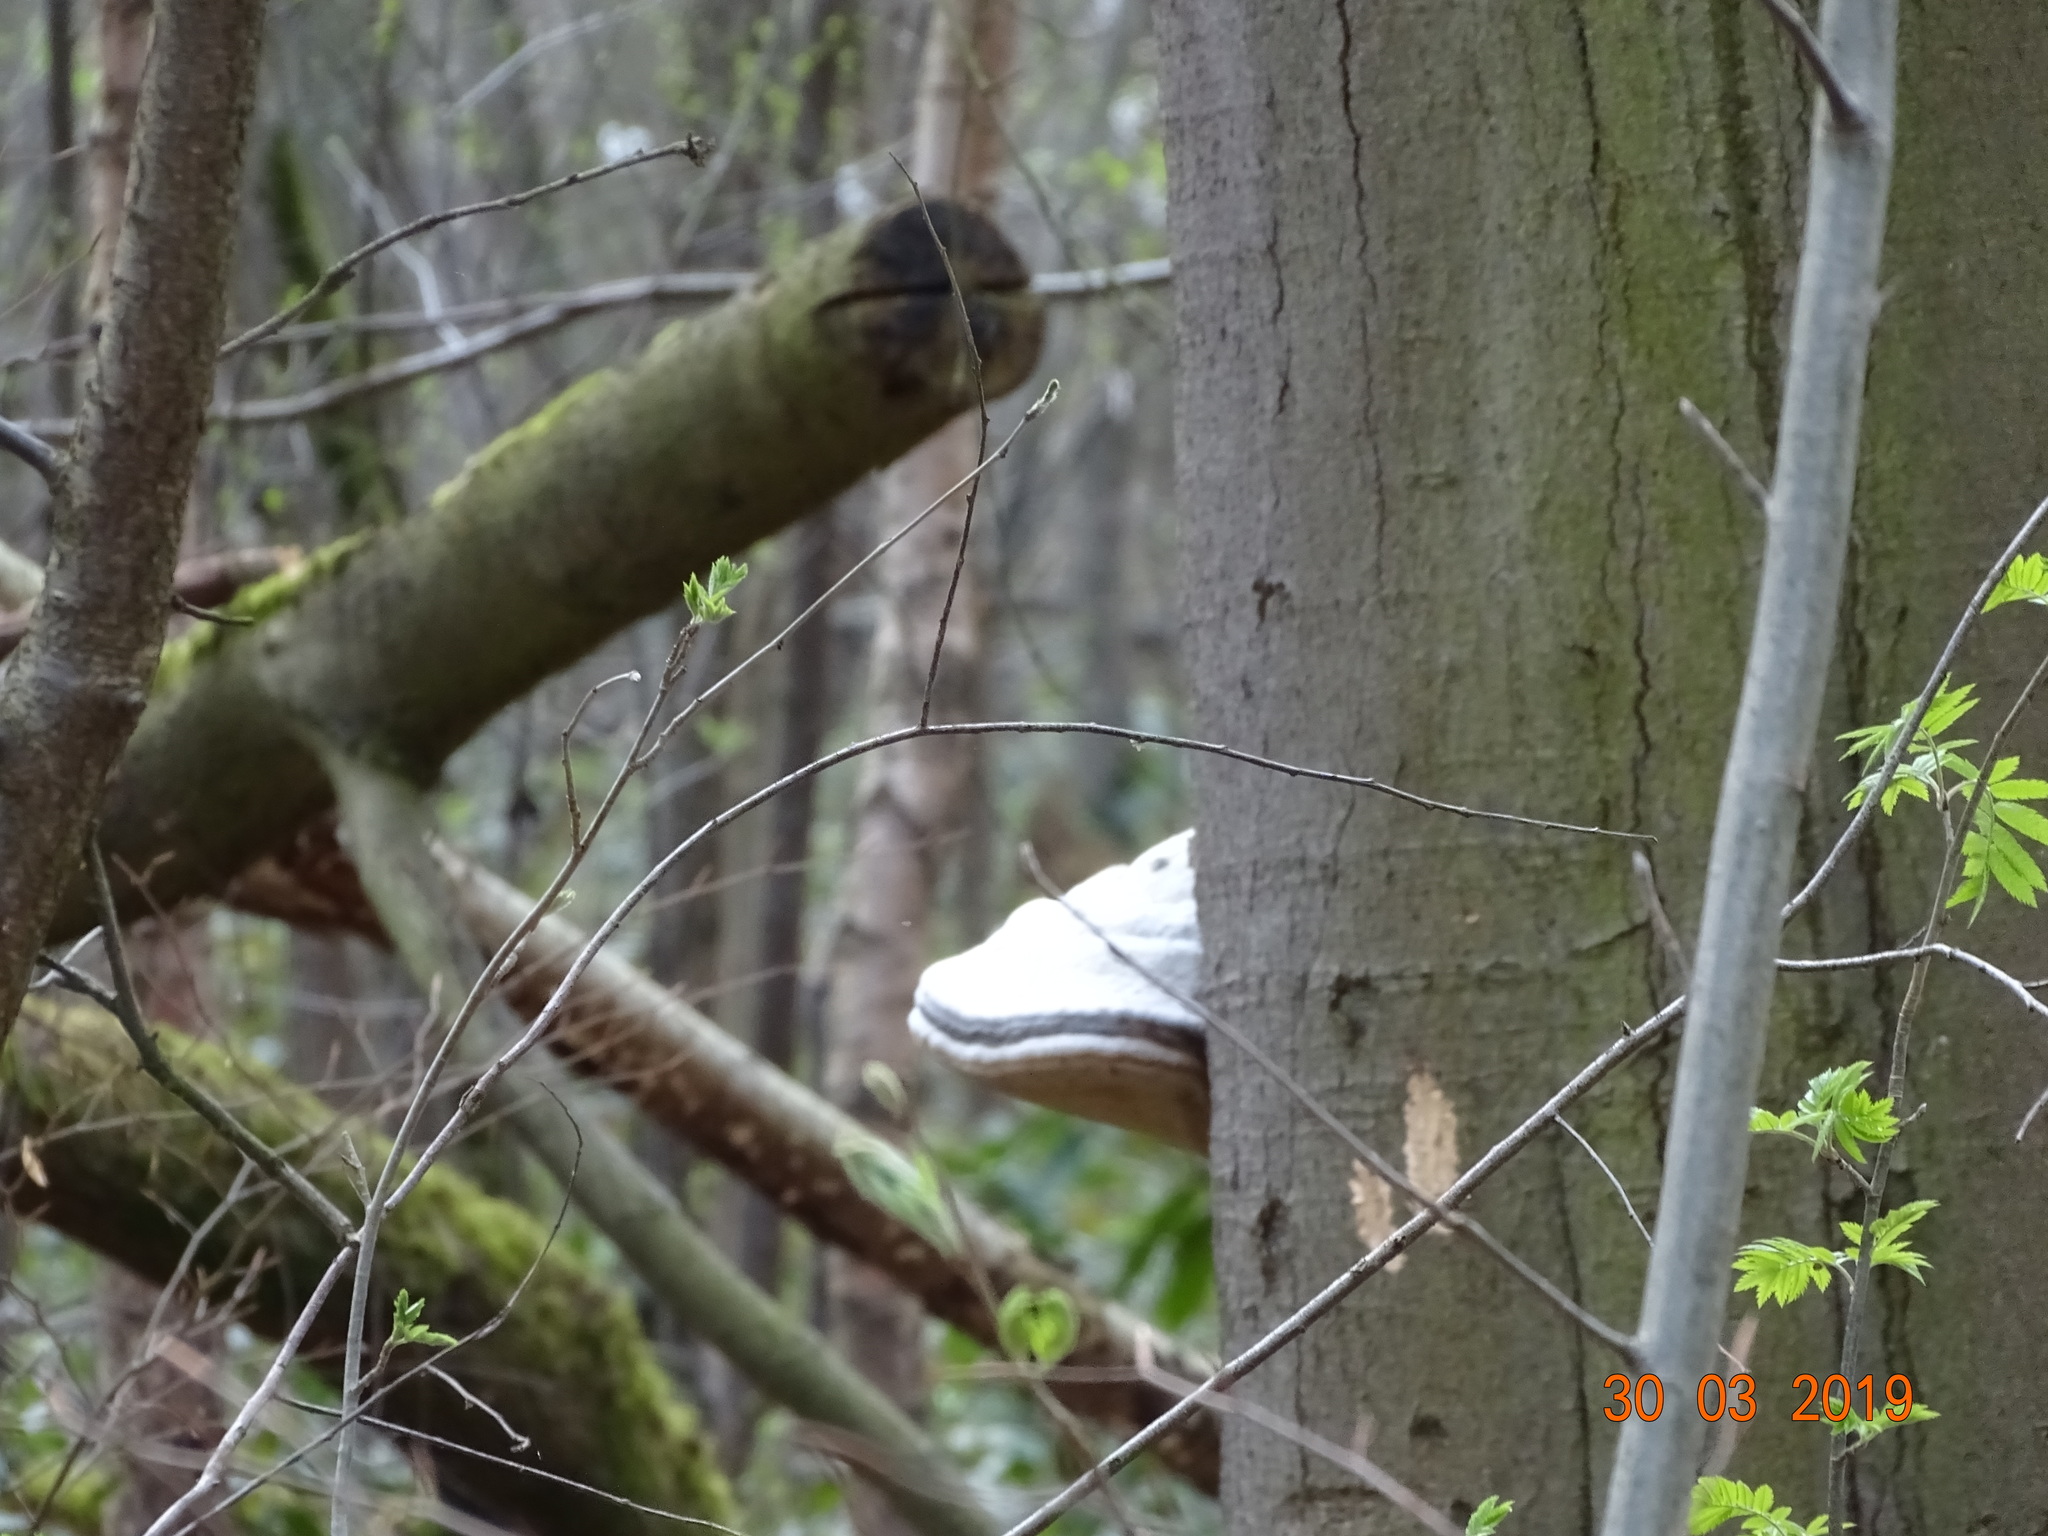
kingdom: Fungi
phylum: Basidiomycota
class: Agaricomycetes
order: Polyporales
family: Polyporaceae
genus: Fomes
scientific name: Fomes fomentarius
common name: Hoof fungus
